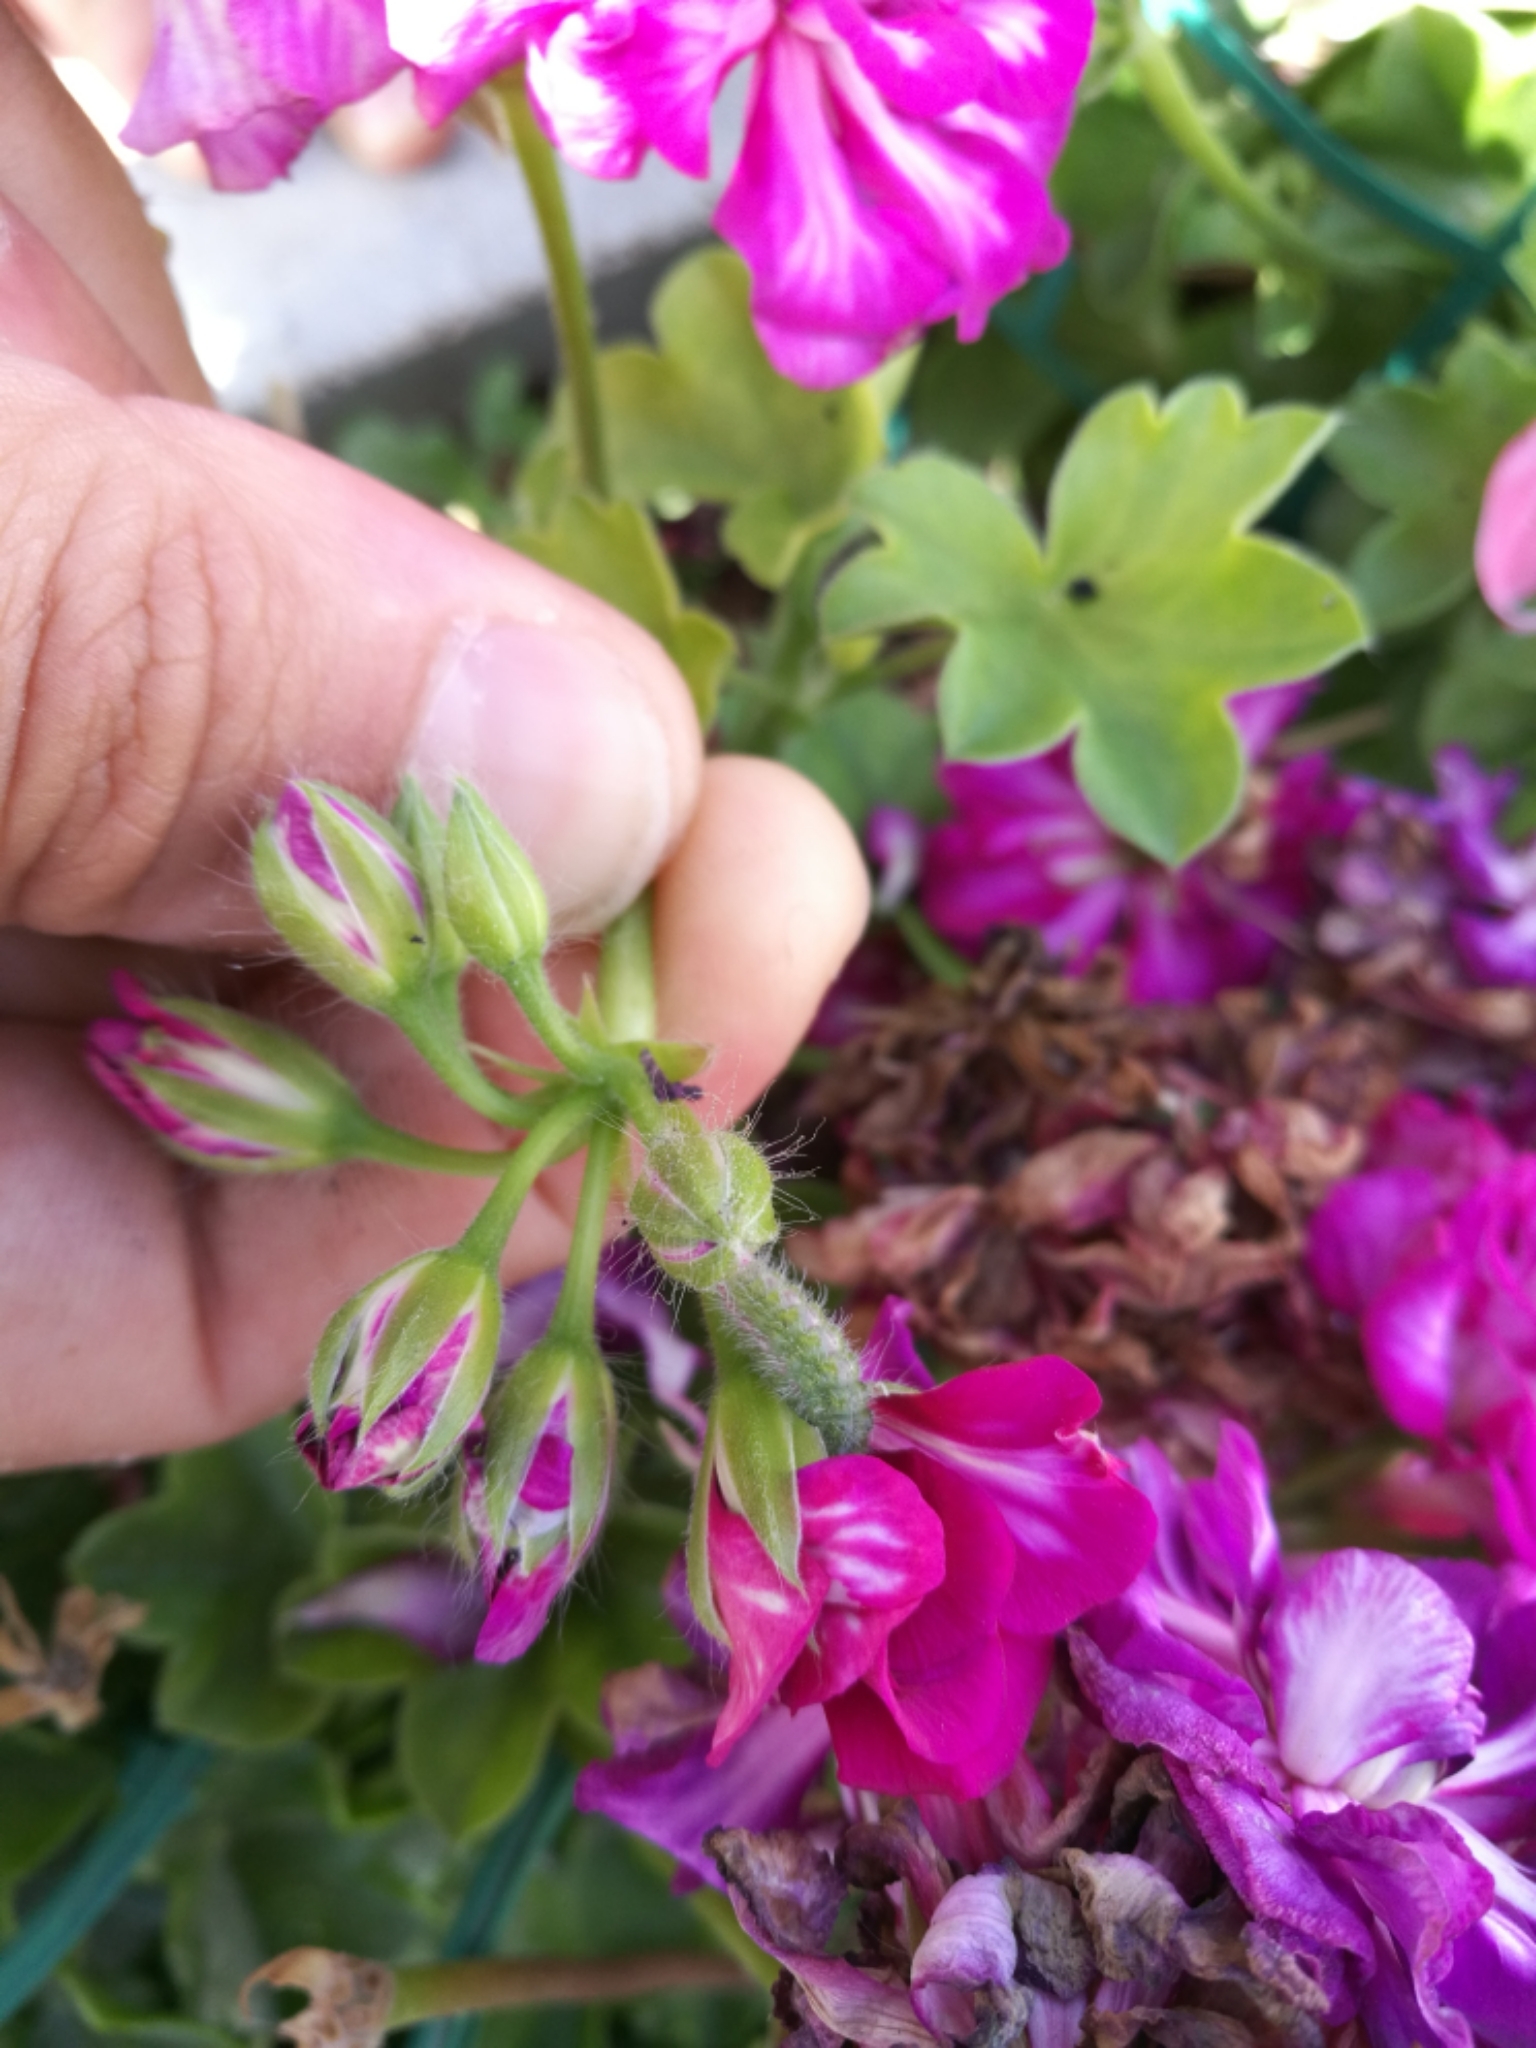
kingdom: Animalia
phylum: Arthropoda
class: Insecta
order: Lepidoptera
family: Lycaenidae
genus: Cacyreus
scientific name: Cacyreus marshalli
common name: Geranium bronze
